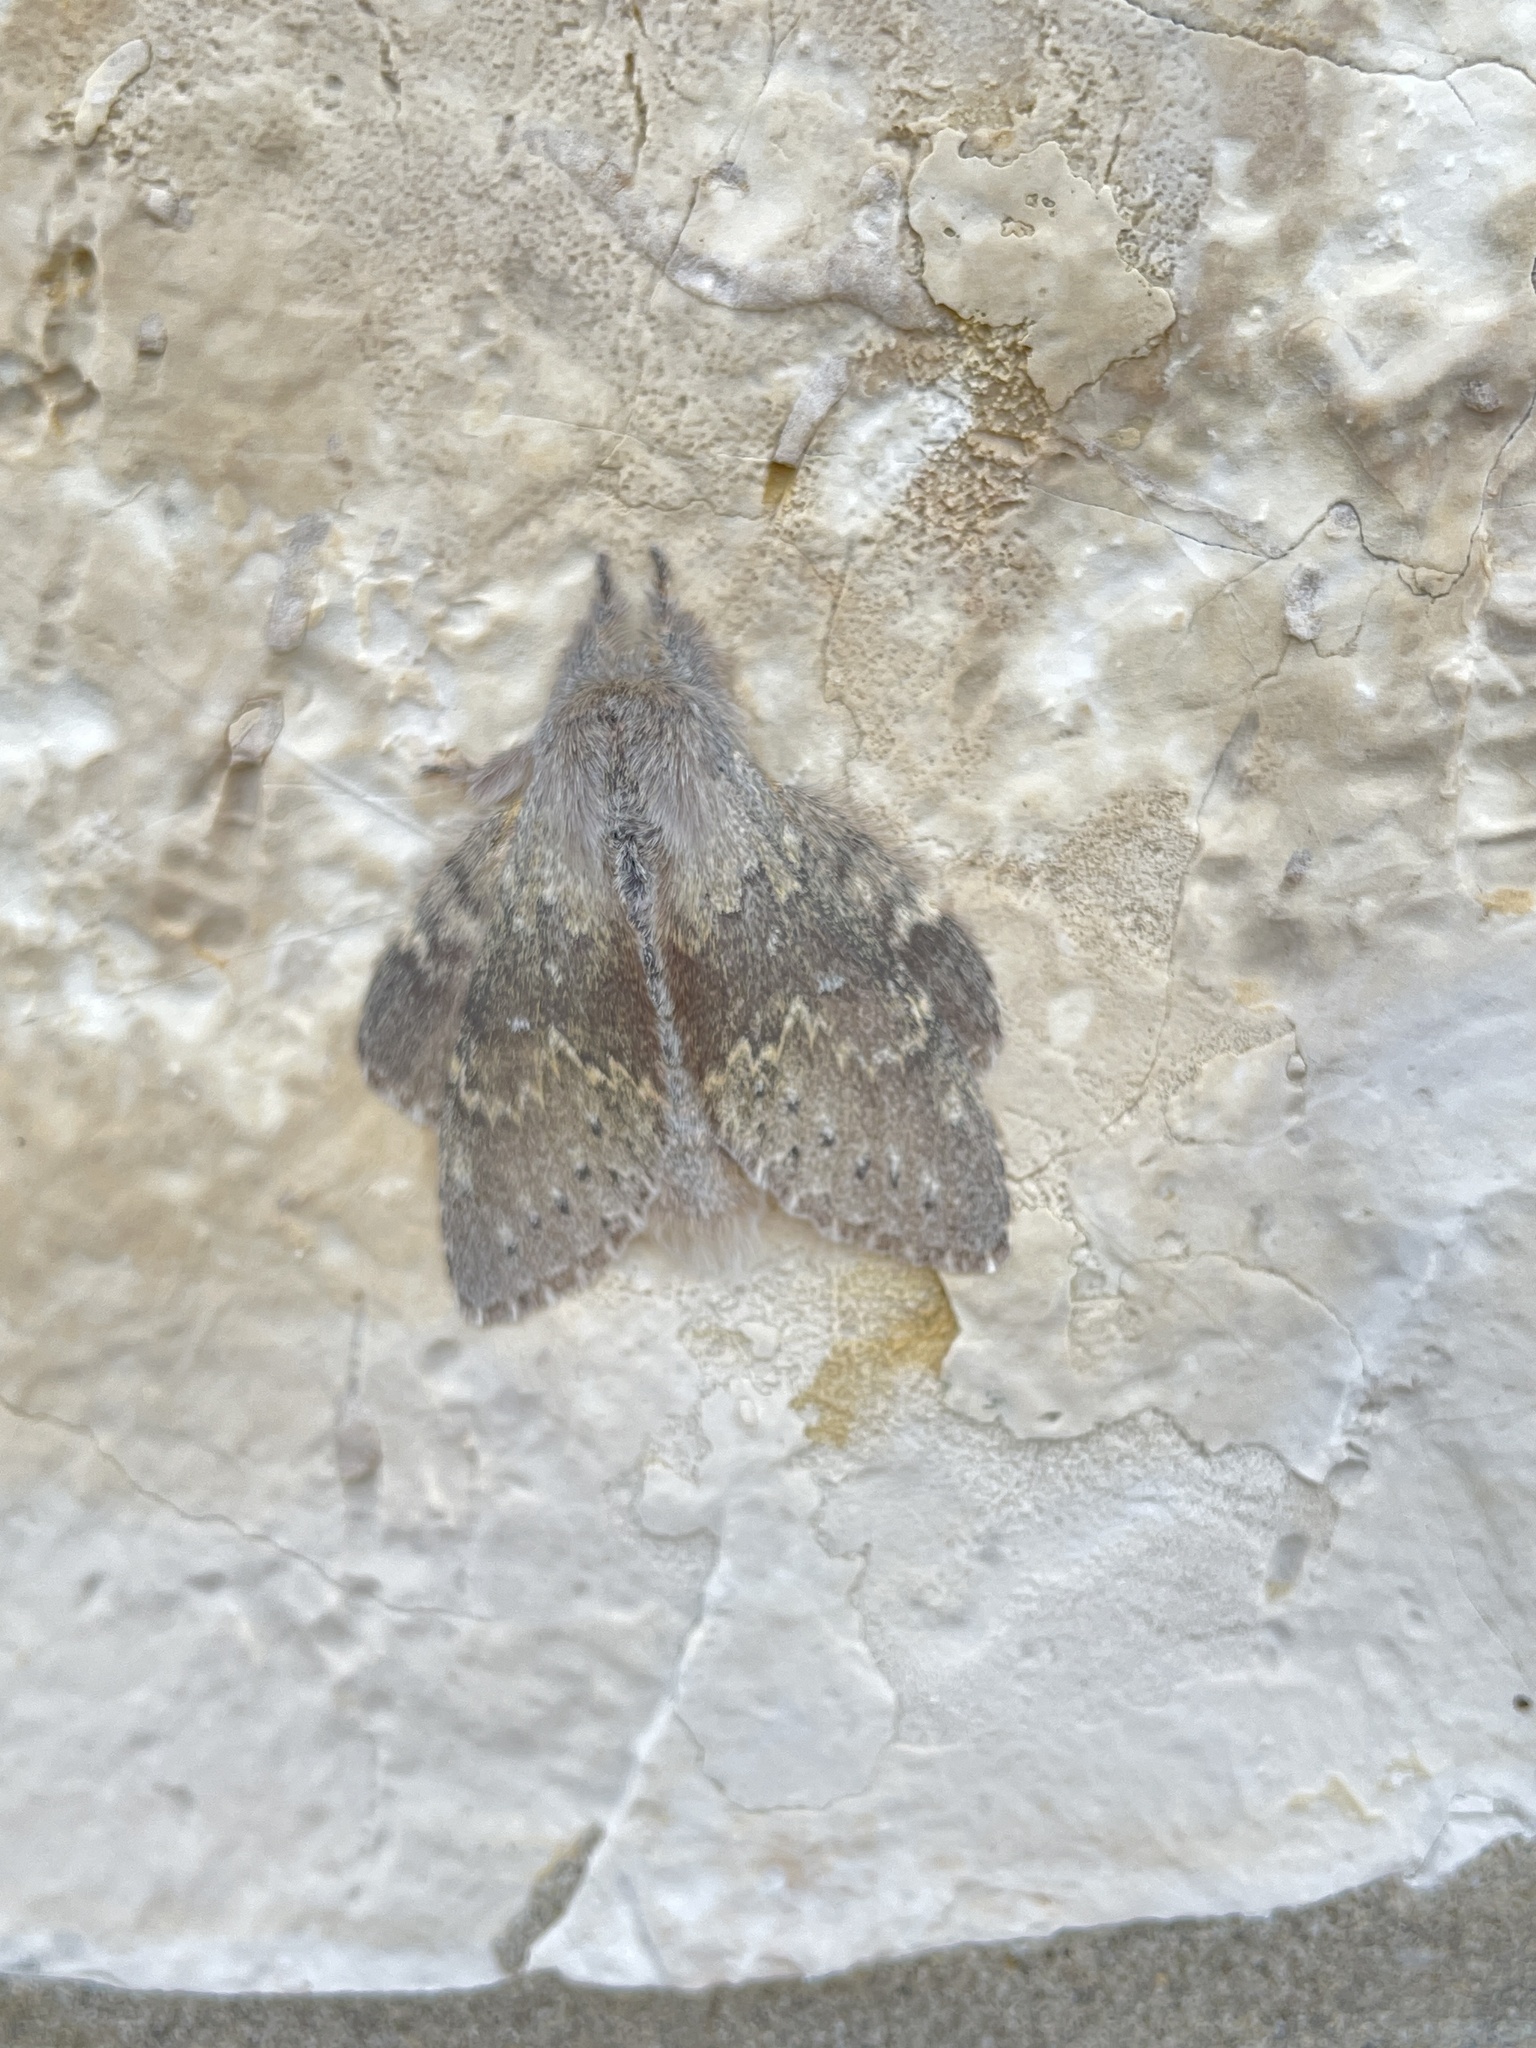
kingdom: Animalia
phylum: Arthropoda
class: Insecta
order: Lepidoptera
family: Notodontidae
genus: Stauropus
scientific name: Stauropus fagi
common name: Lobster moth
